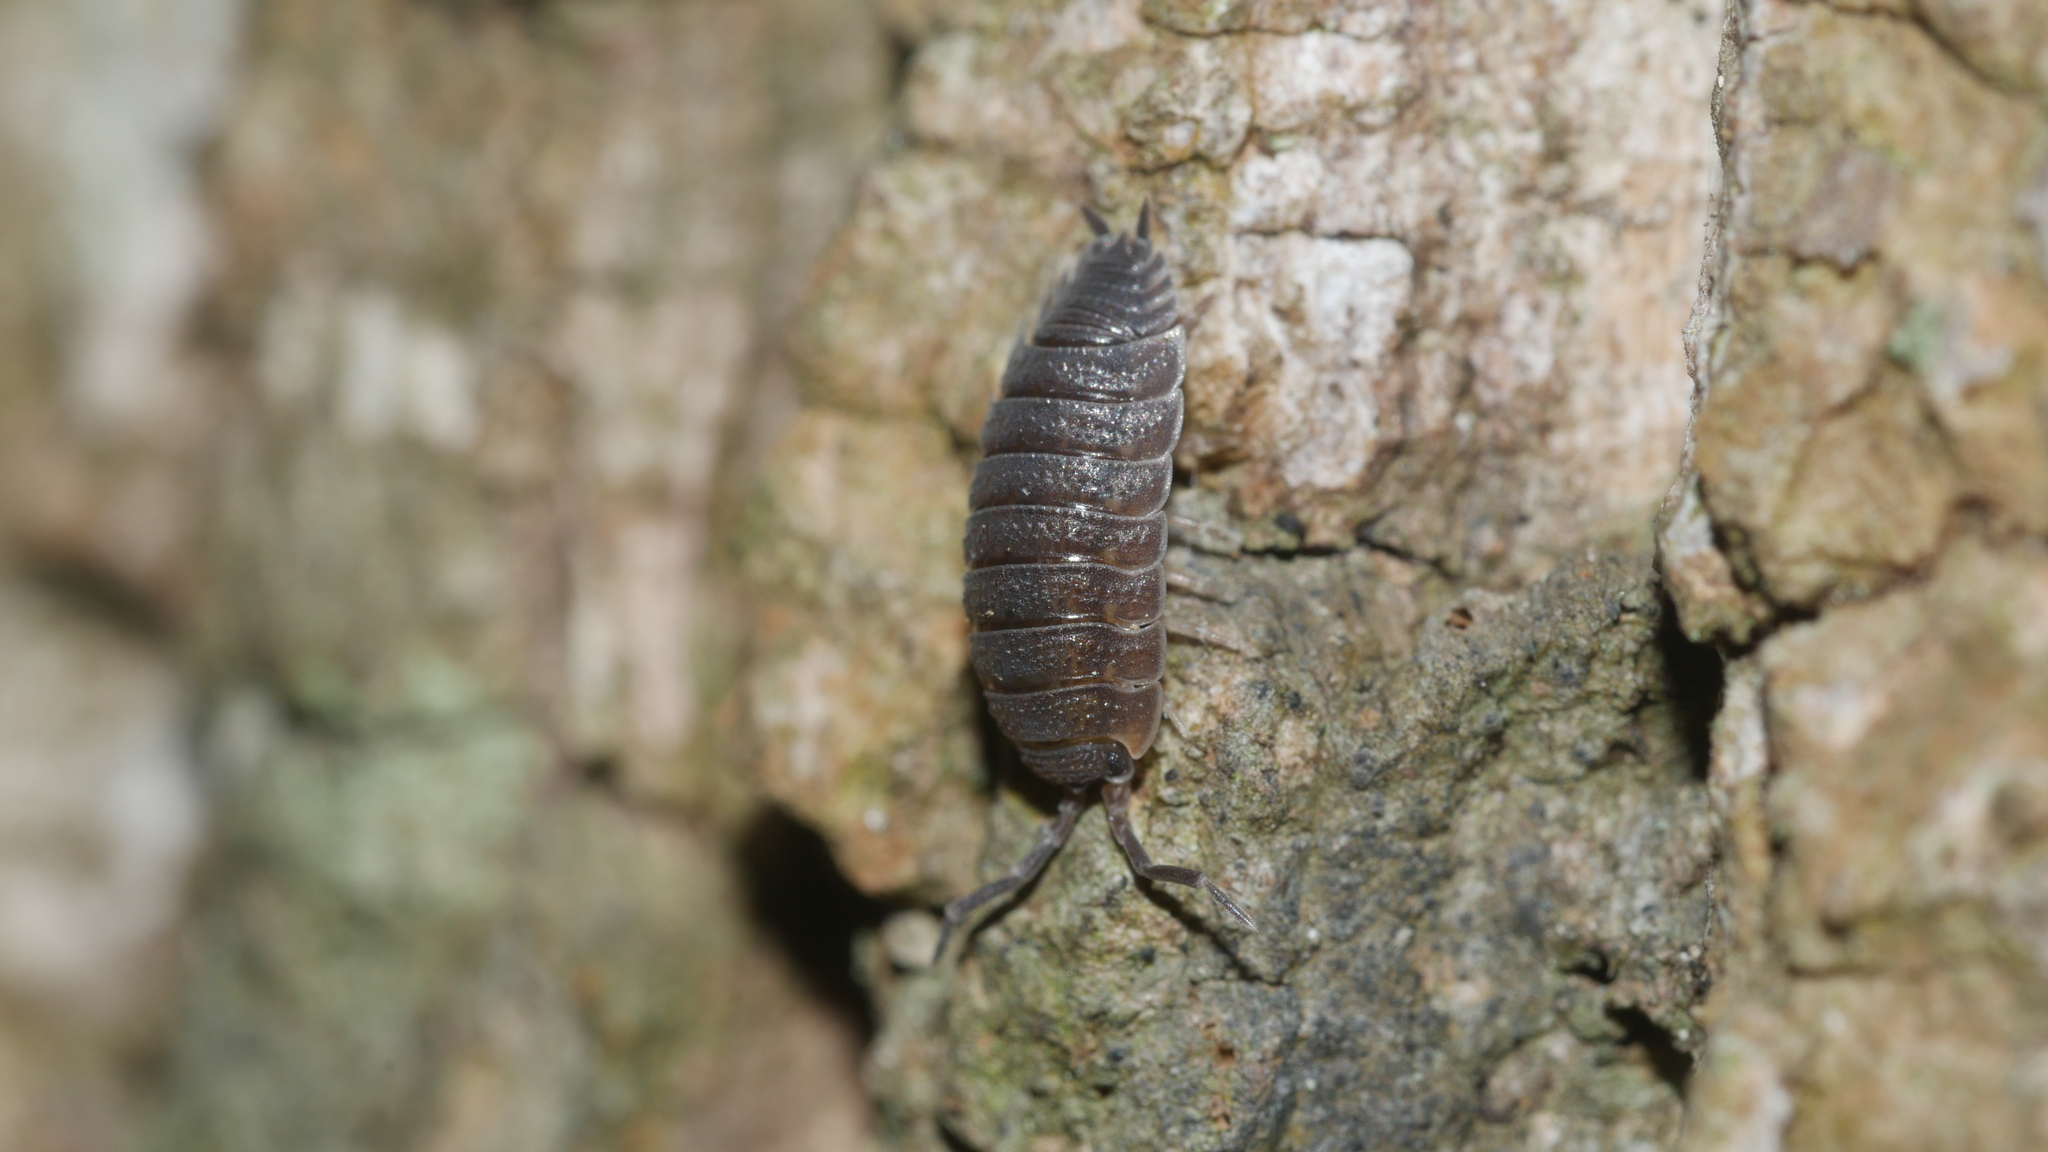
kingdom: Animalia
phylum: Arthropoda
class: Malacostraca
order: Isopoda
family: Porcellionidae
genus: Porcellio
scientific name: Porcellio scaber
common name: Common rough woodlouse
